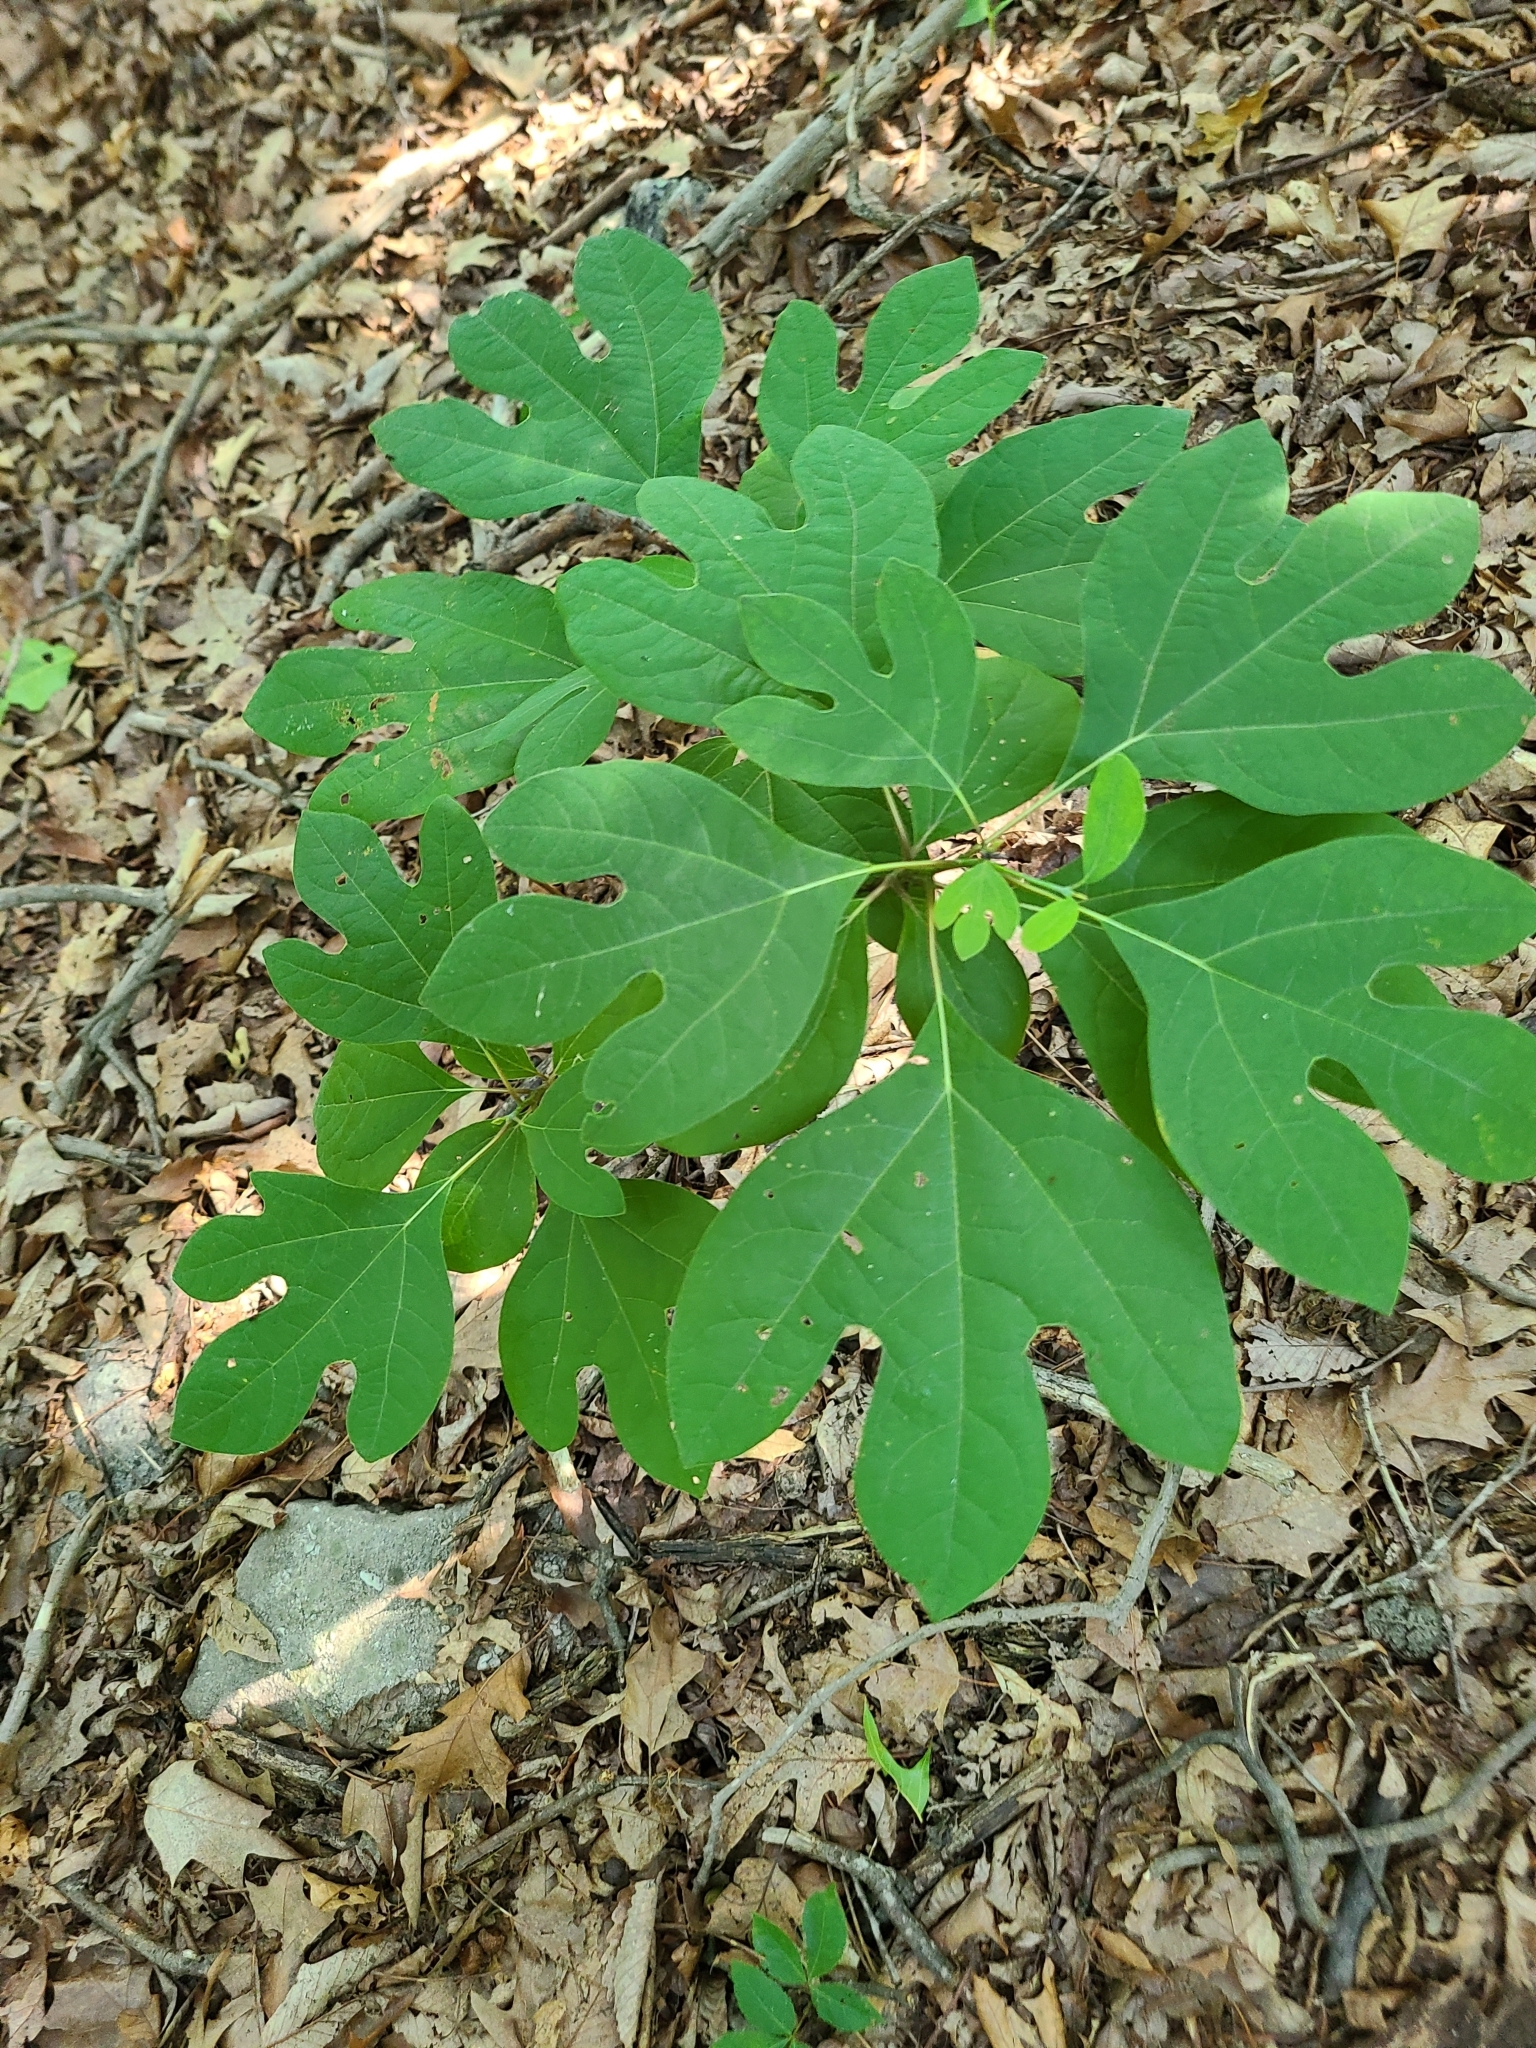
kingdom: Plantae
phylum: Tracheophyta
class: Magnoliopsida
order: Laurales
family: Lauraceae
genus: Sassafras
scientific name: Sassafras albidum
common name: Sassafras
